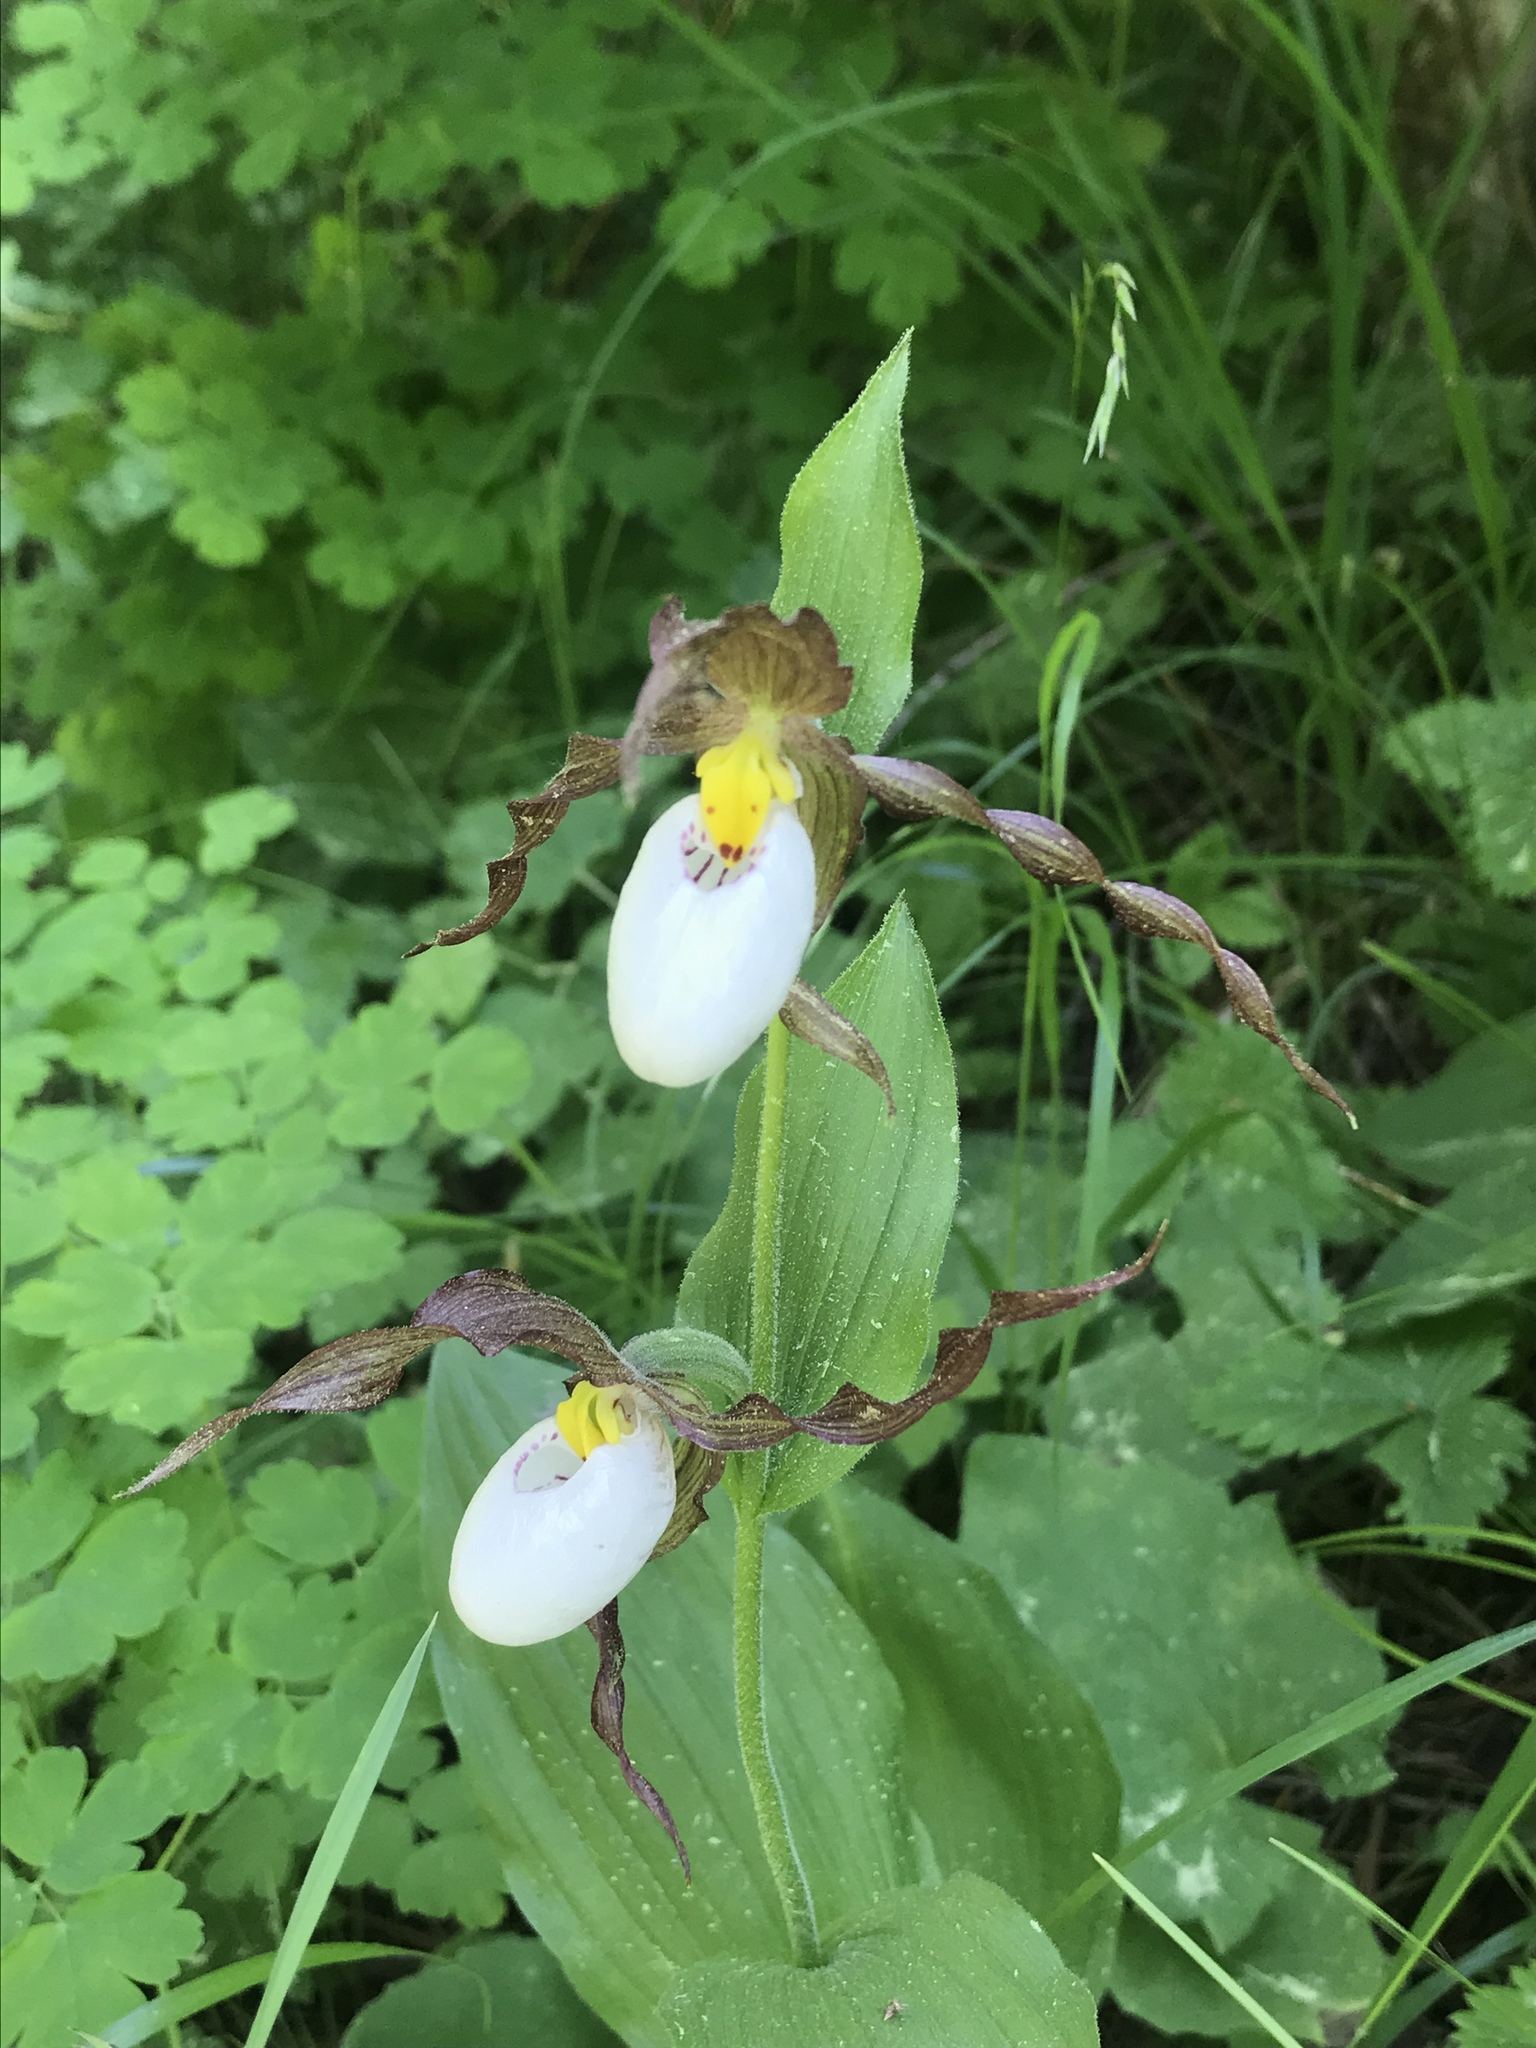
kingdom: Plantae
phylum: Tracheophyta
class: Liliopsida
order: Asparagales
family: Orchidaceae
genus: Cypripedium
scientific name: Cypripedium montanum
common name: Mountain lady's-slipper
